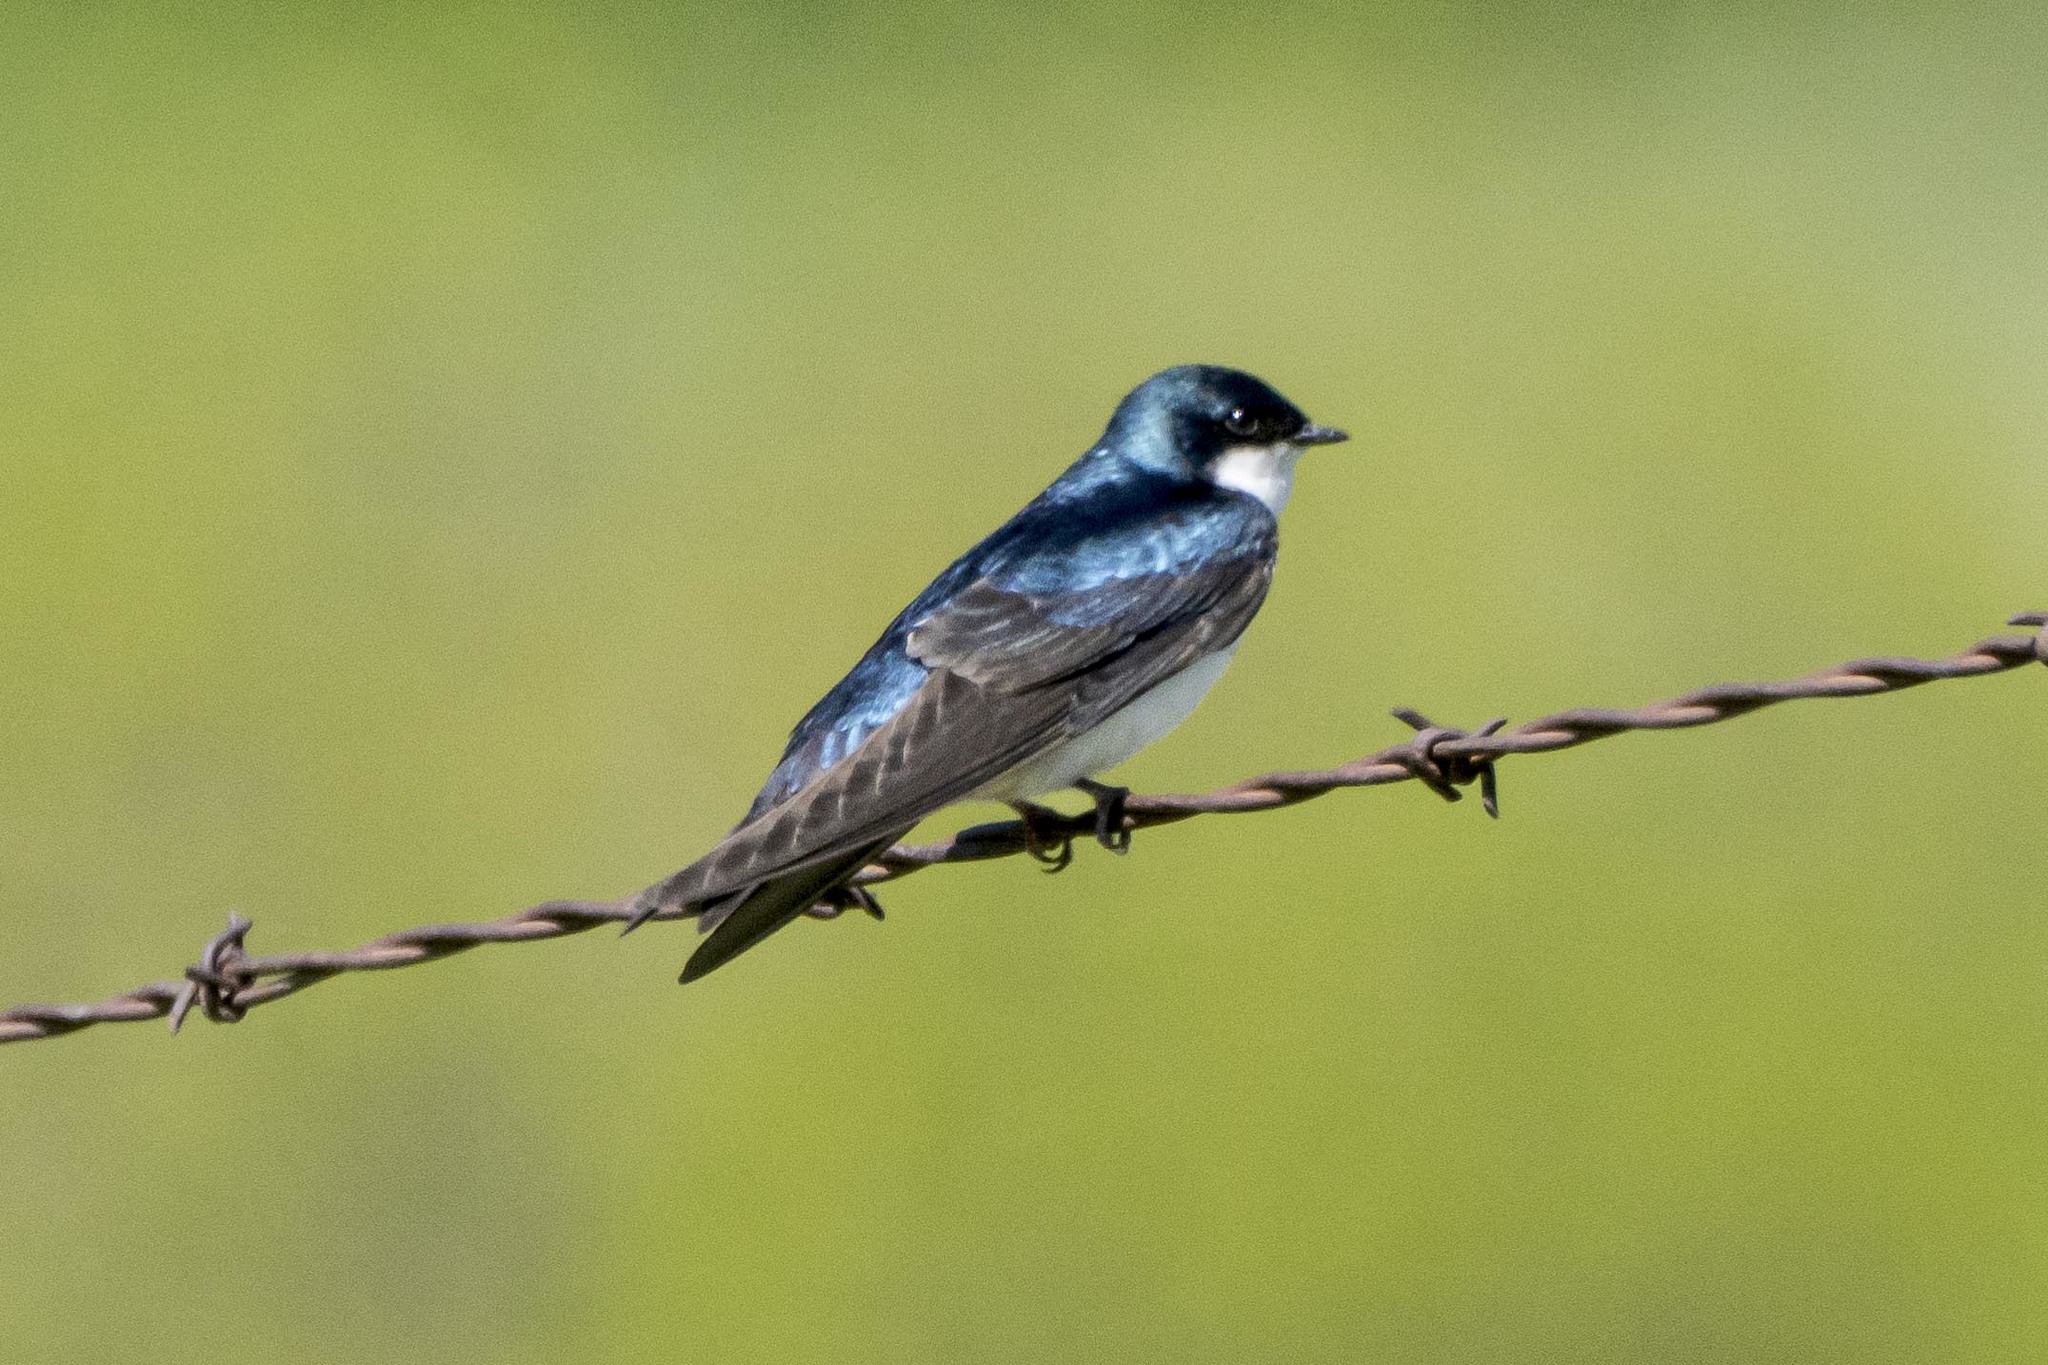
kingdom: Animalia
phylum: Chordata
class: Aves
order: Passeriformes
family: Hirundinidae
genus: Tachycineta
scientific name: Tachycineta bicolor
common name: Tree swallow
